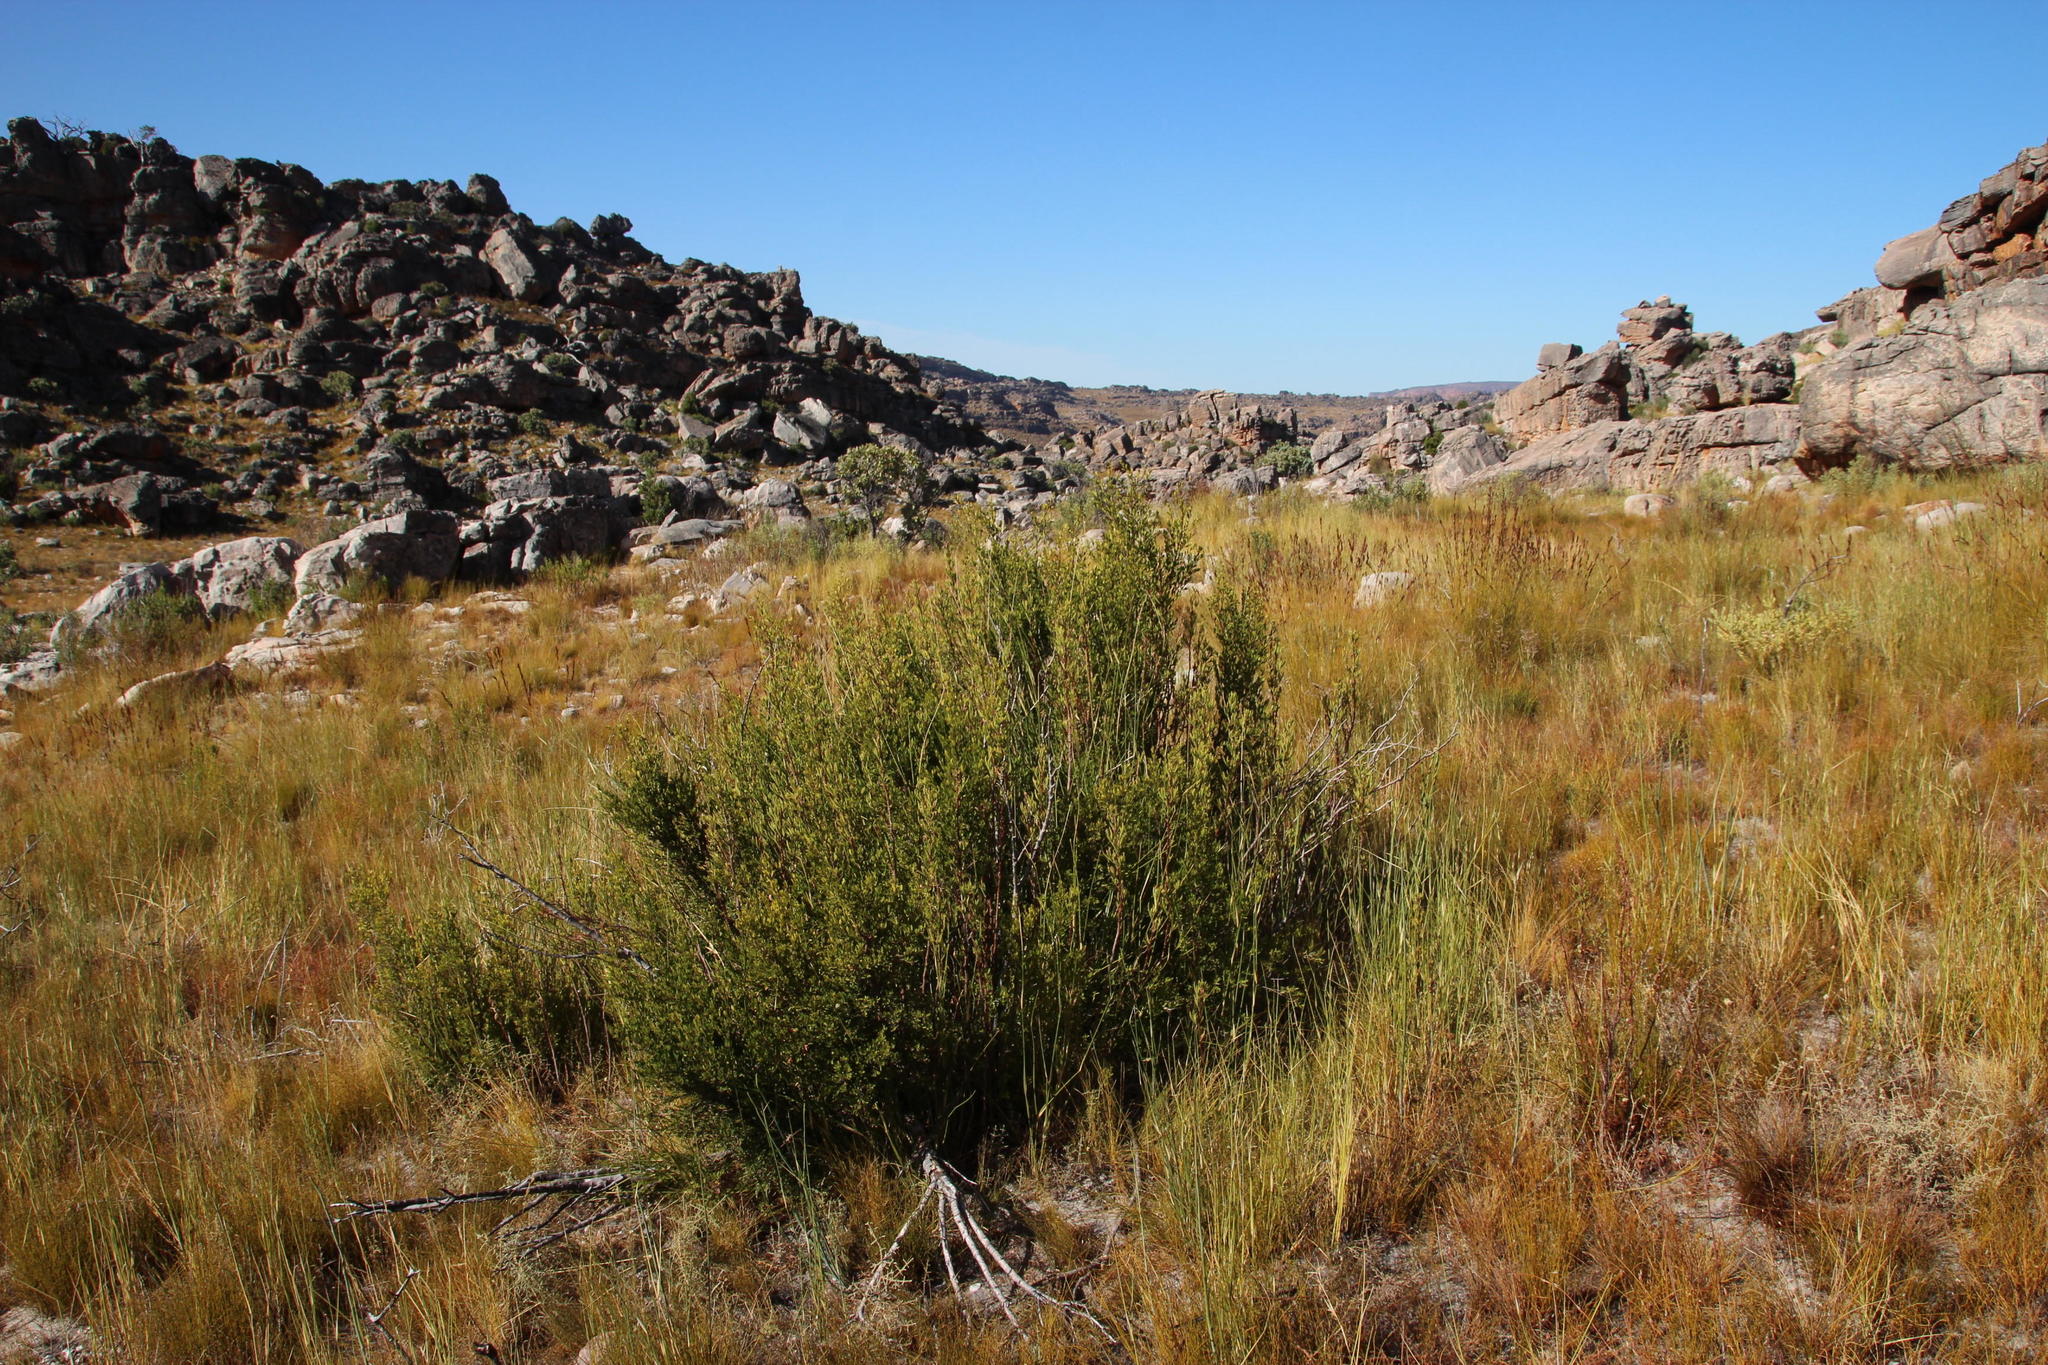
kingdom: Plantae
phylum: Tracheophyta
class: Magnoliopsida
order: Ericales
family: Ebenaceae
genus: Diospyros
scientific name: Diospyros glabra
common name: Fynbos star apple
